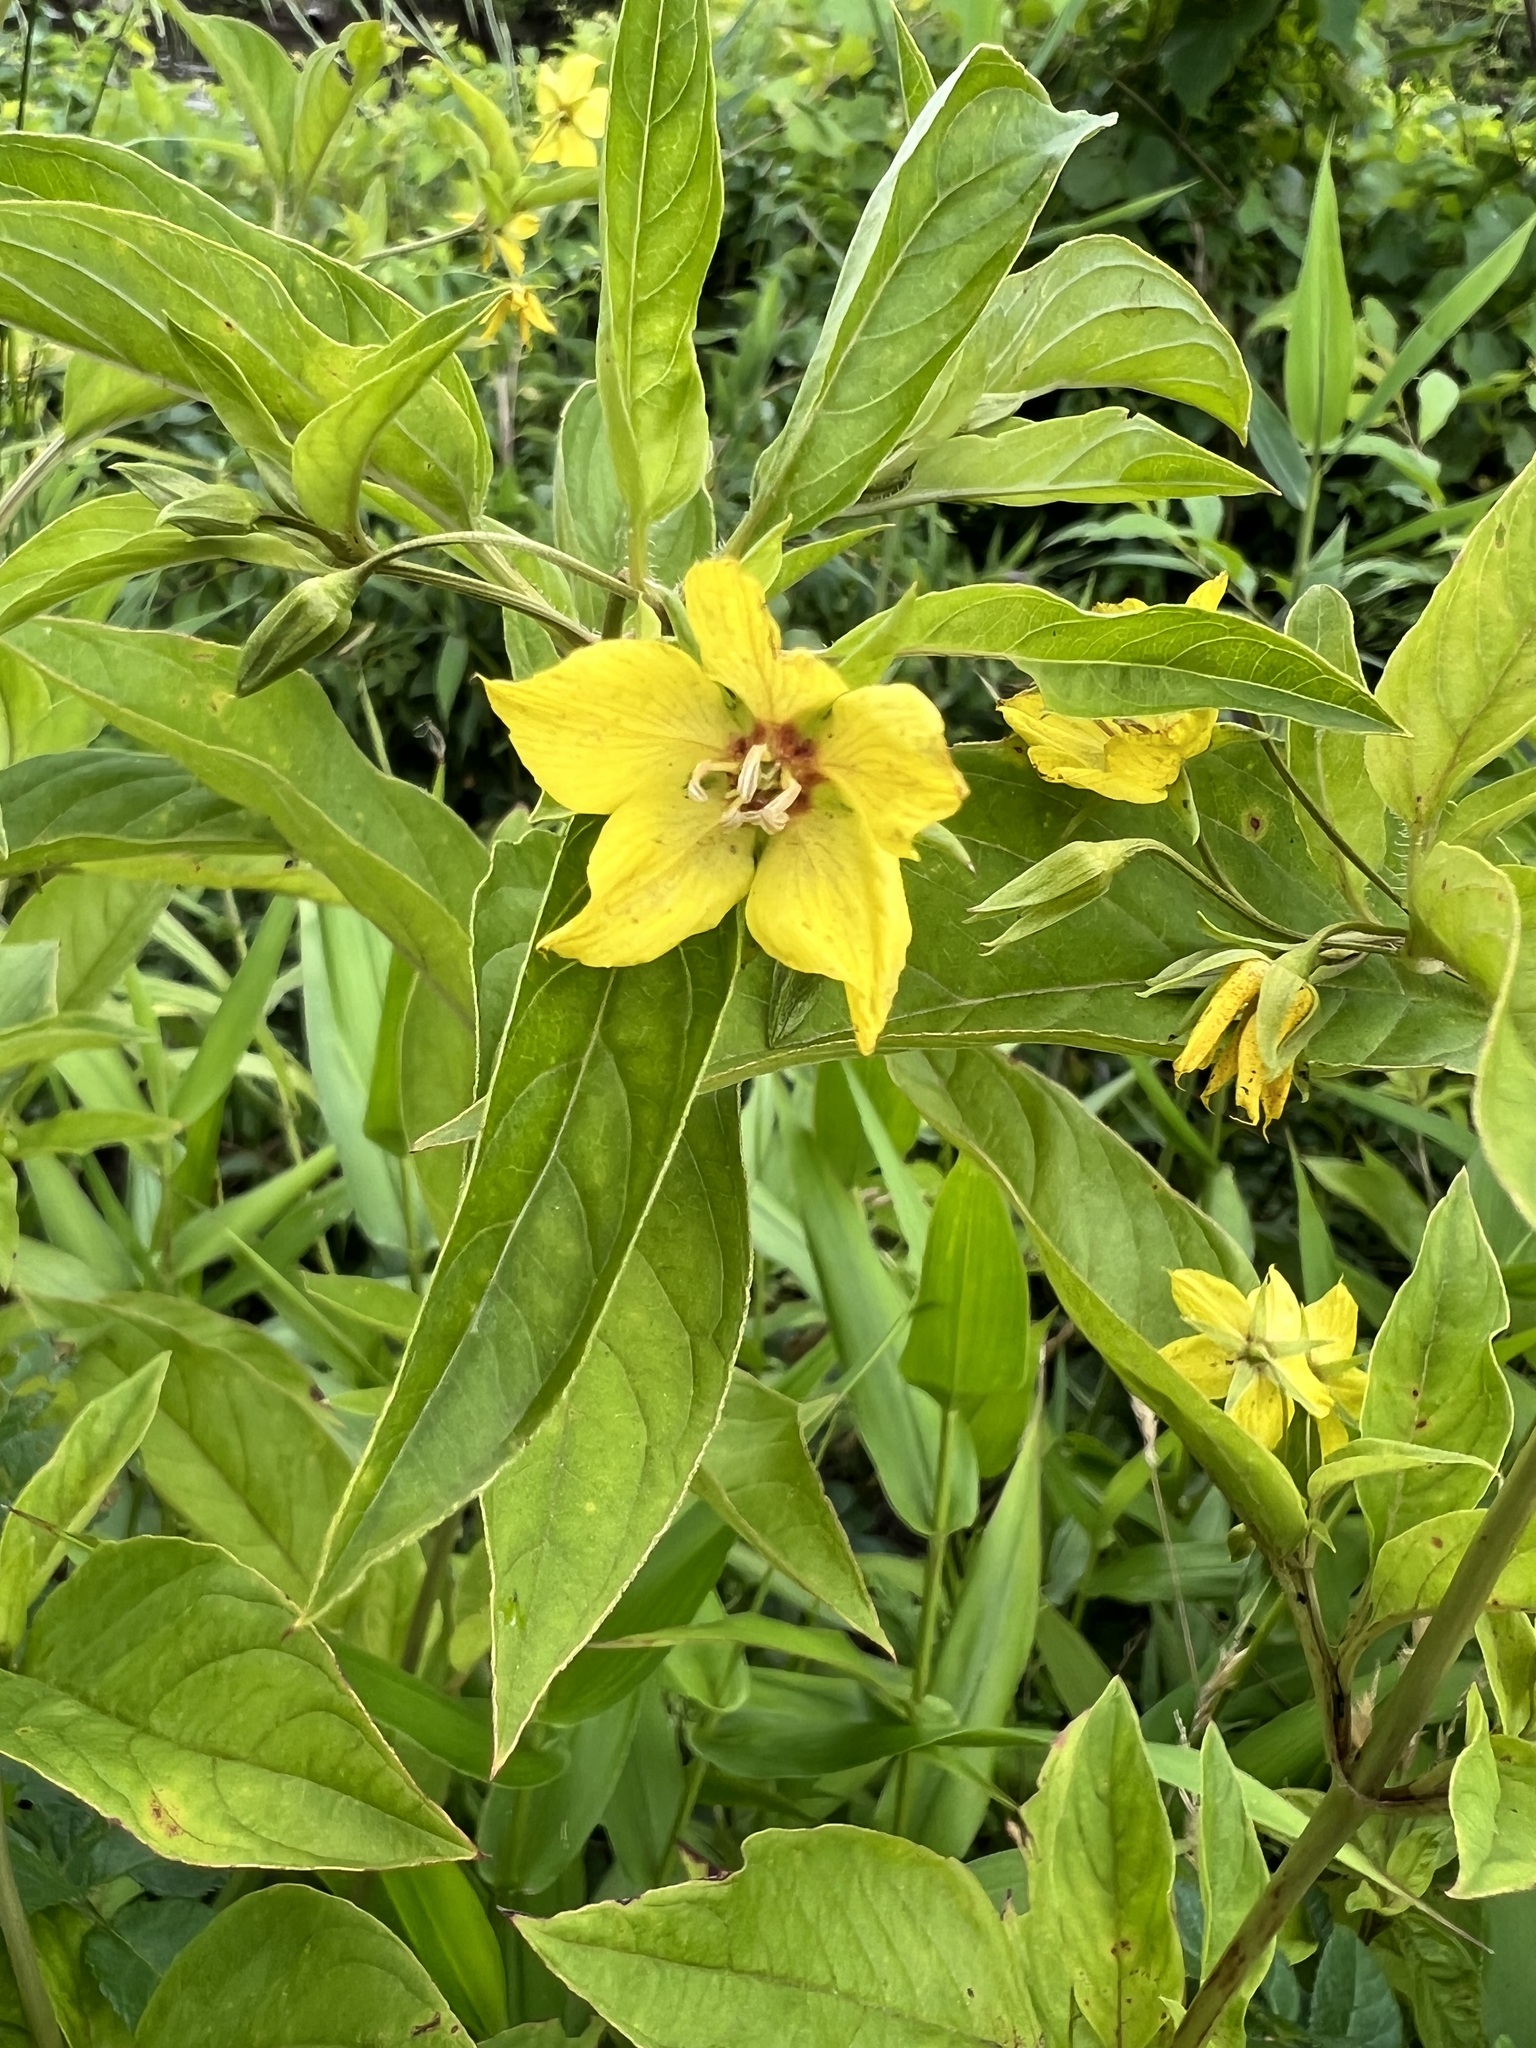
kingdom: Plantae
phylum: Tracheophyta
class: Magnoliopsida
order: Ericales
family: Primulaceae
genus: Lysimachia
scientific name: Lysimachia ciliata
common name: Fringed loosestrife
